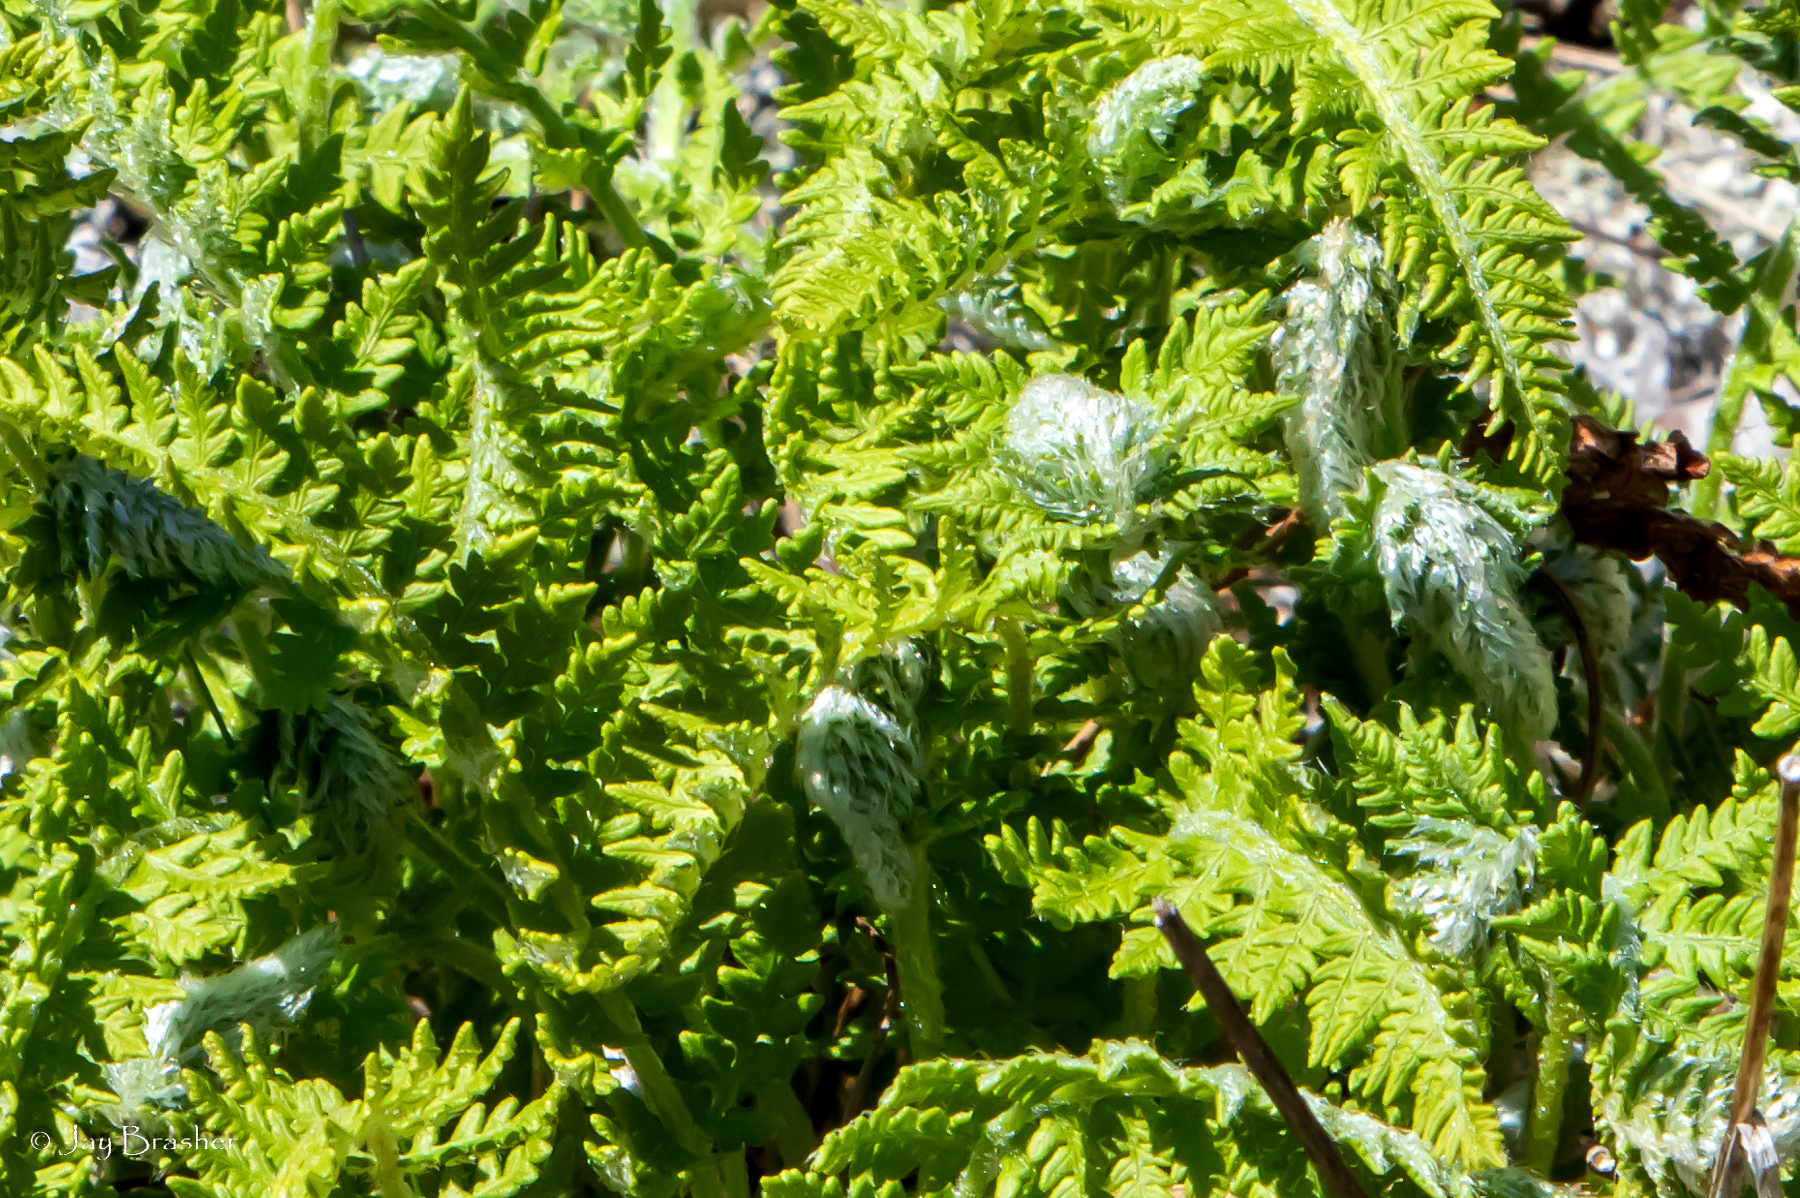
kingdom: Plantae
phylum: Tracheophyta
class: Polypodiopsida
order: Polypodiales
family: Woodsiaceae
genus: Woodsia
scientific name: Woodsia ilvensis
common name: Fragrant woodsia
